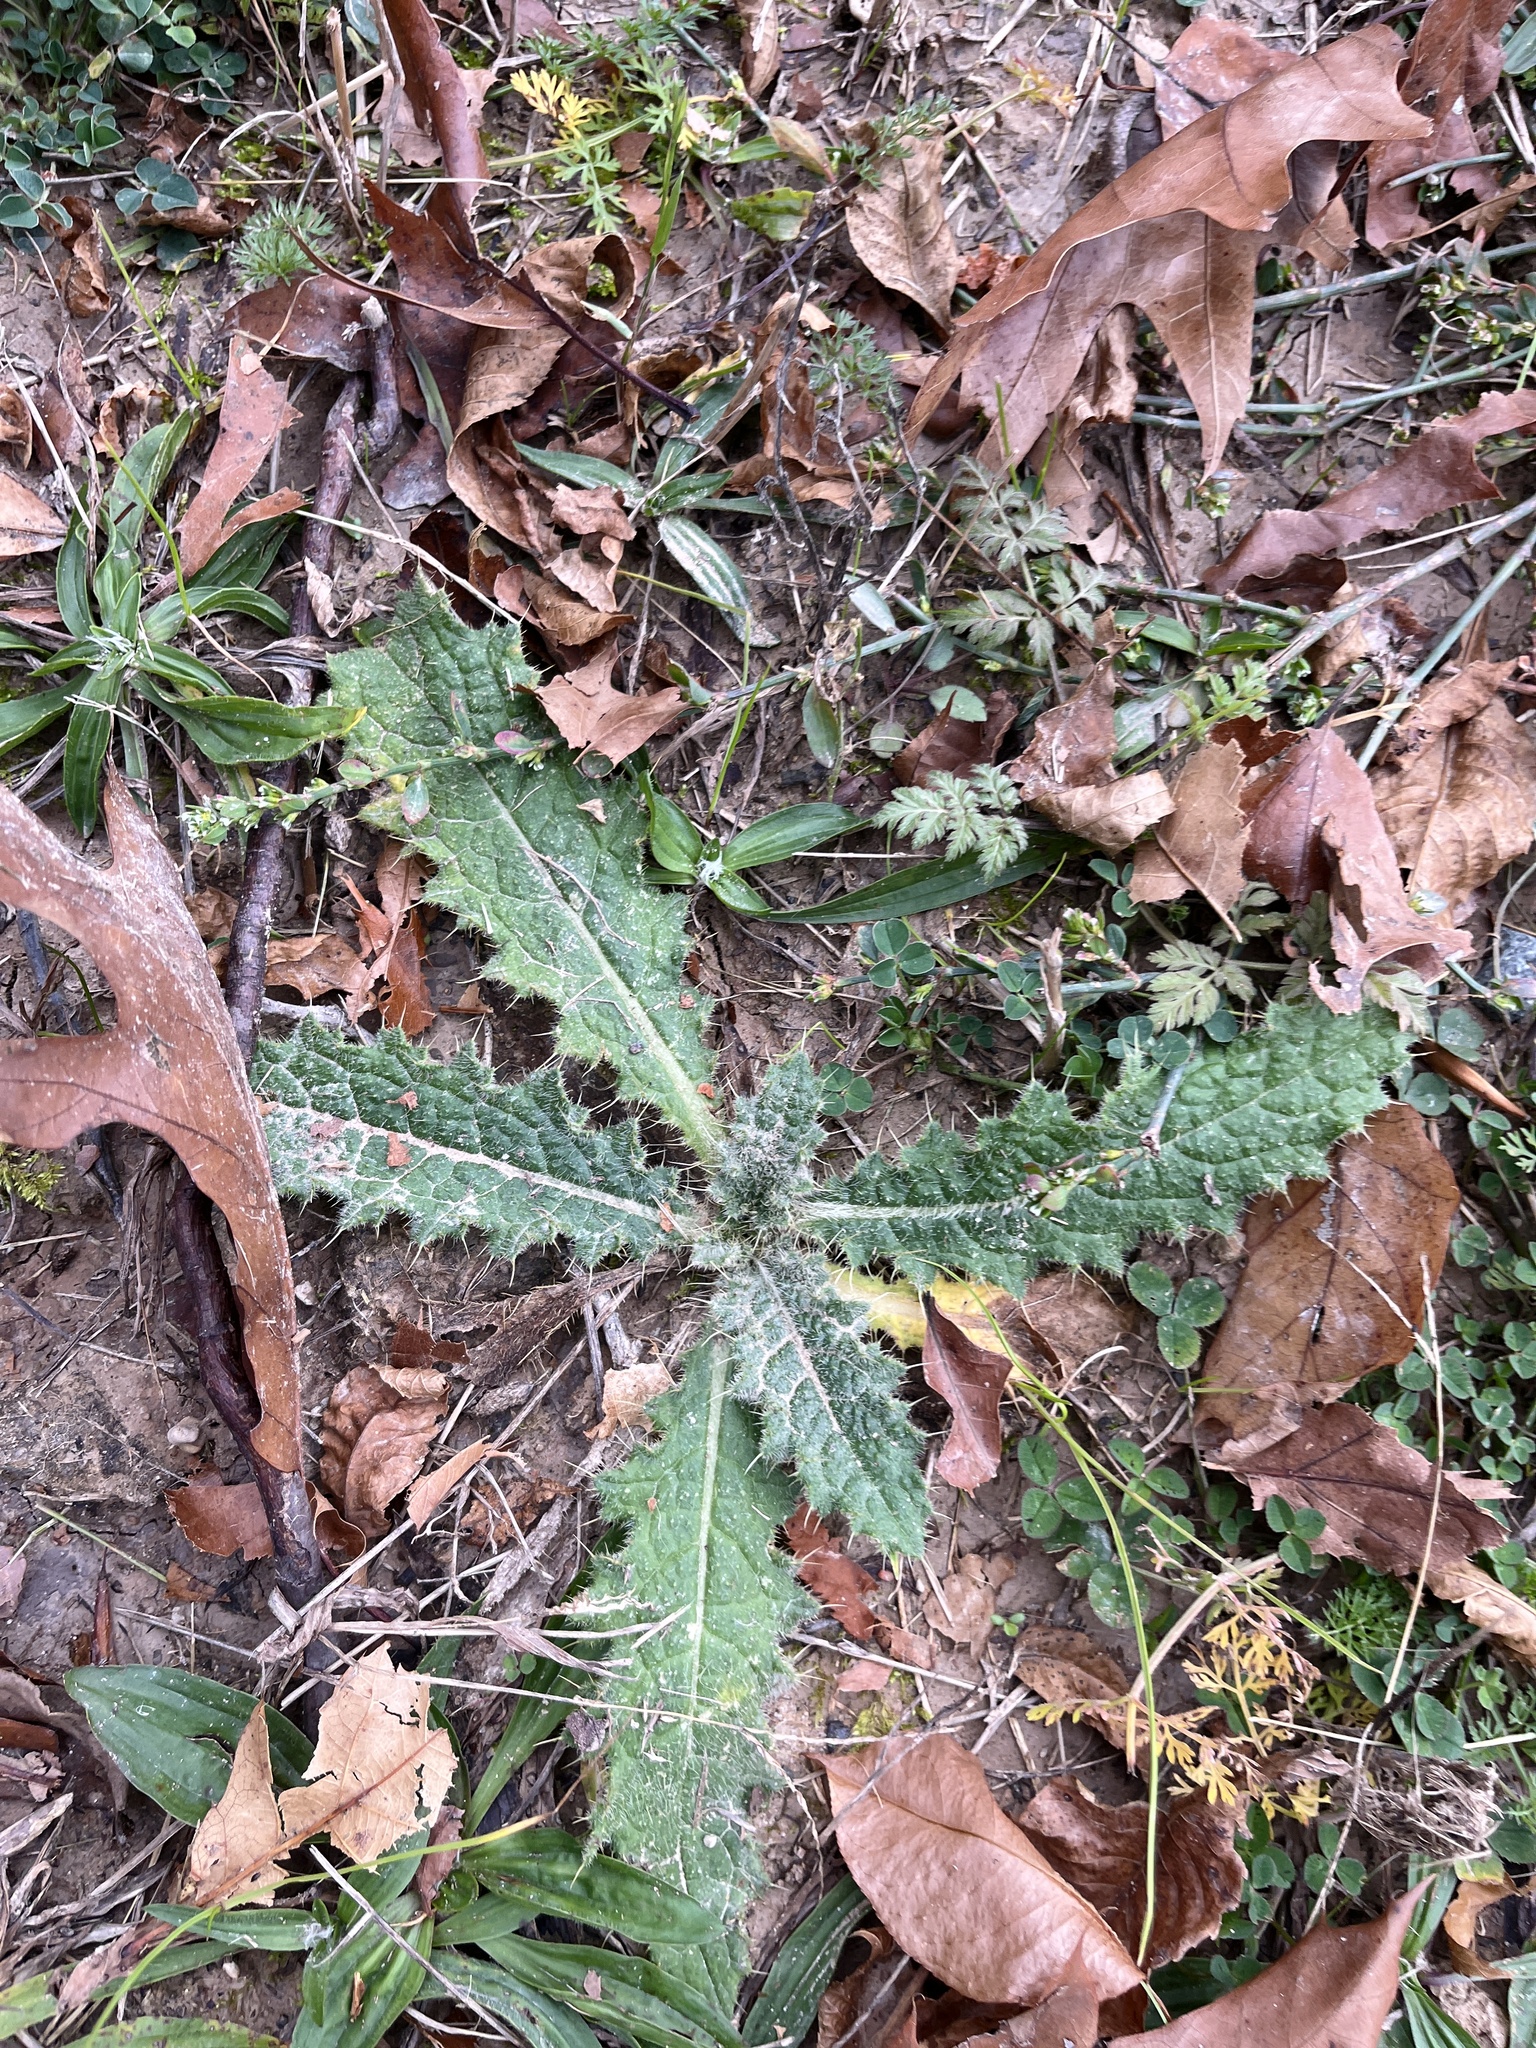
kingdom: Plantae
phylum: Tracheophyta
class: Magnoliopsida
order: Asterales
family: Asteraceae
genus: Cirsium
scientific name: Cirsium vulgare
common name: Bull thistle
